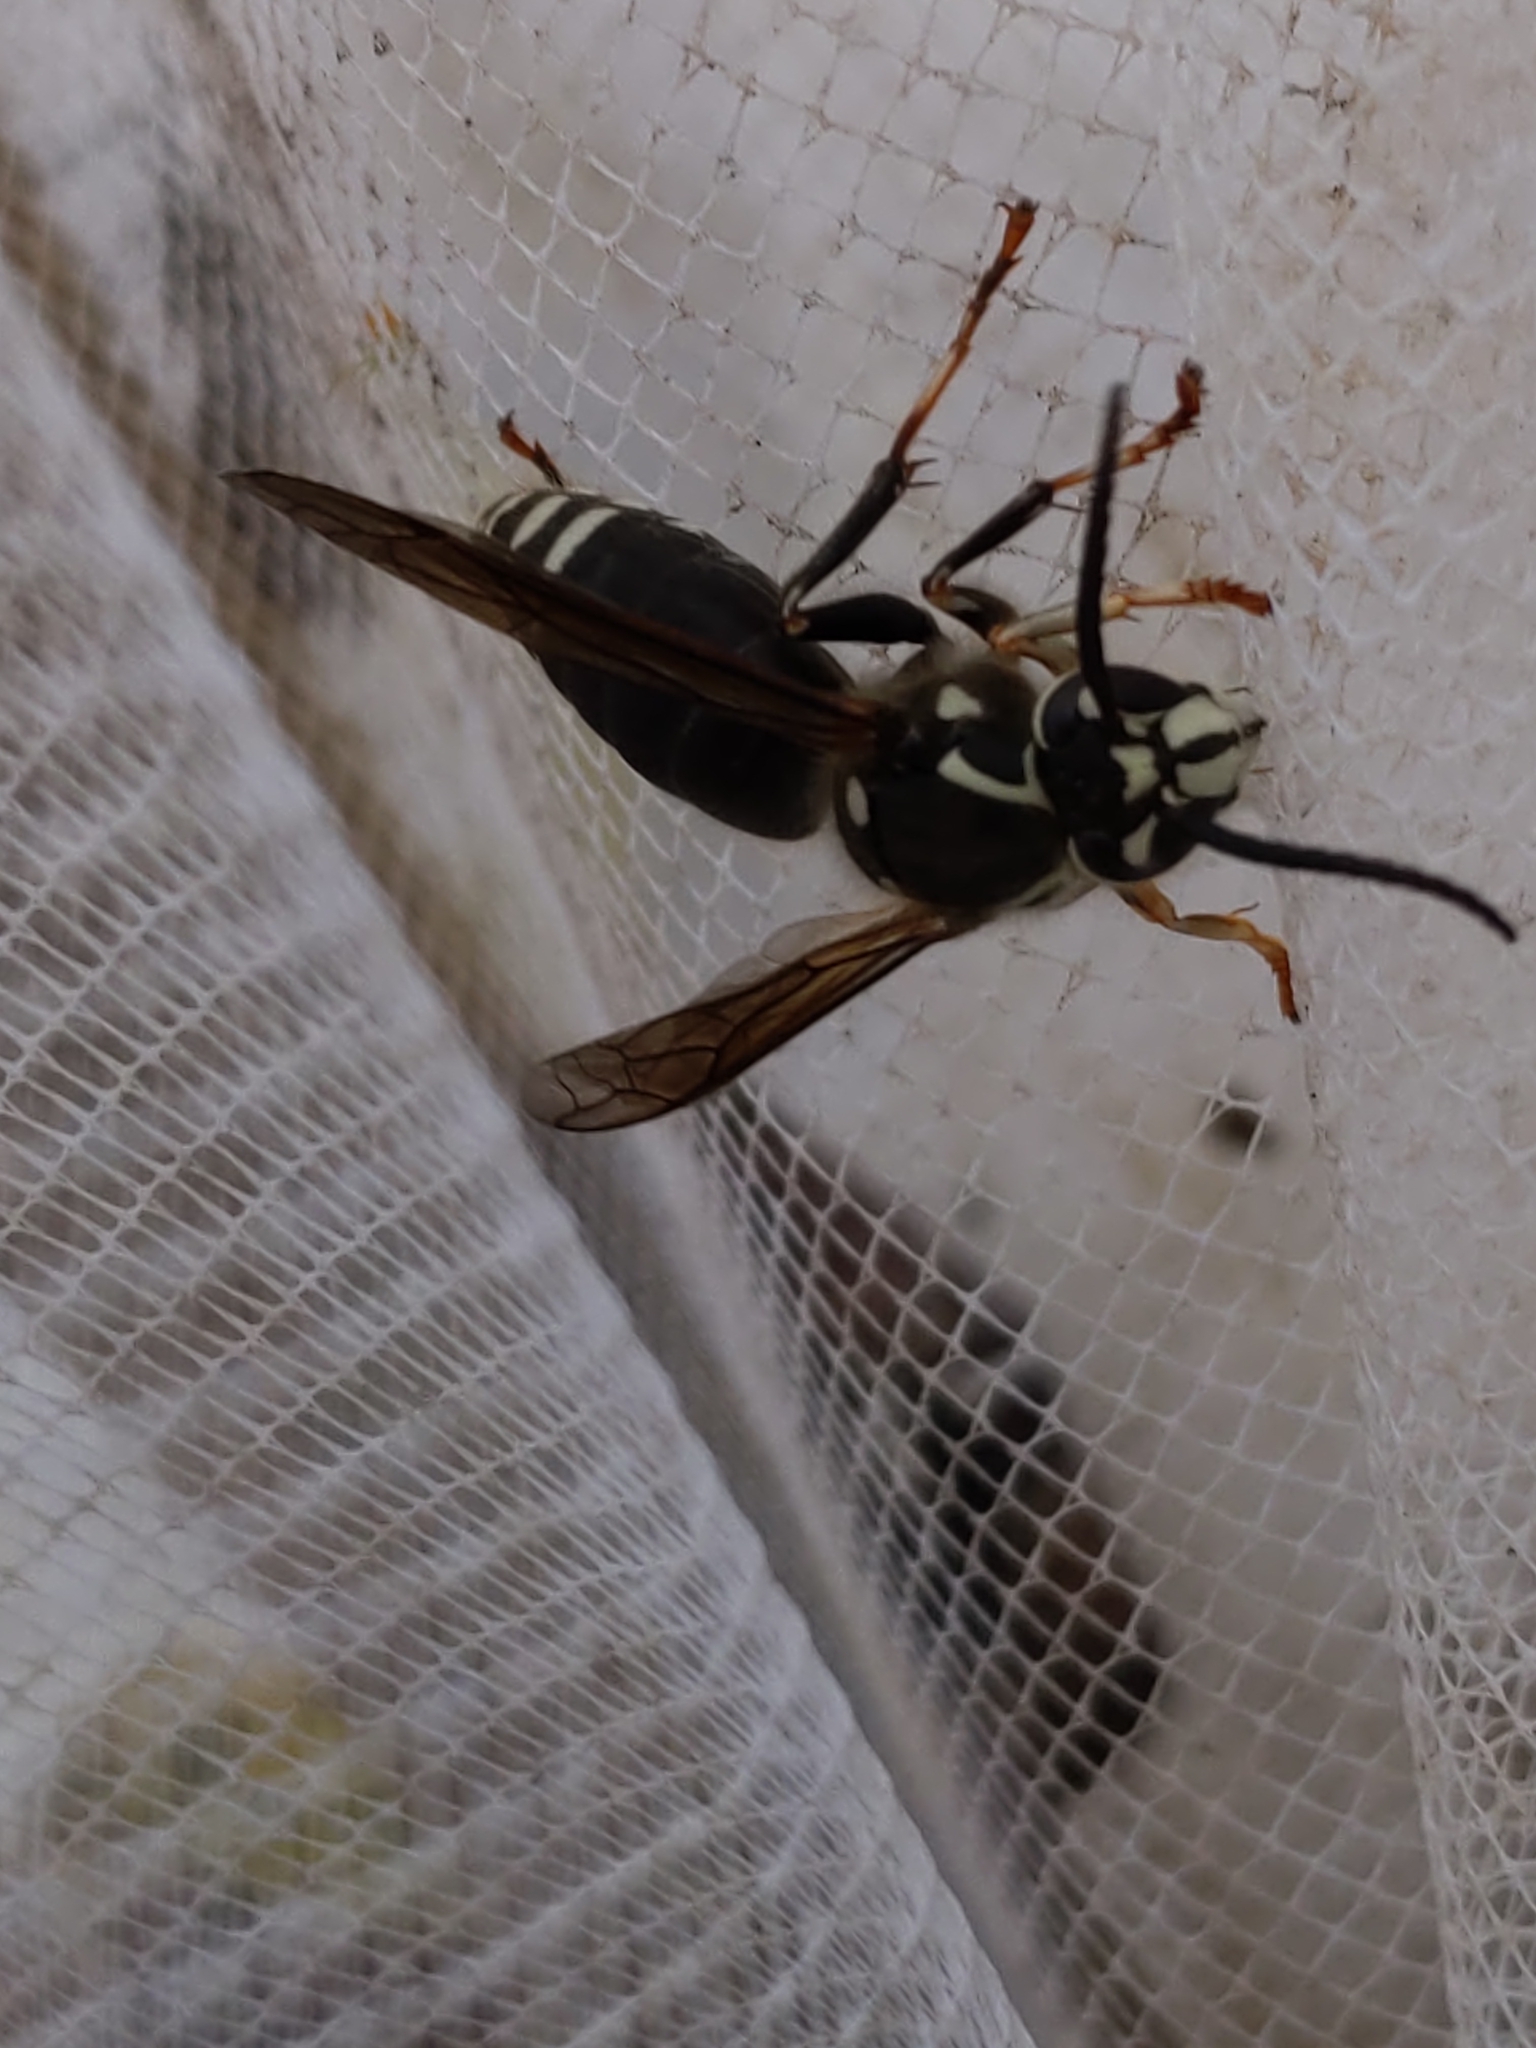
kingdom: Animalia
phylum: Arthropoda
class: Insecta
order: Hymenoptera
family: Vespidae
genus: Dolichovespula
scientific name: Dolichovespula maculata
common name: Bald-faced hornet
